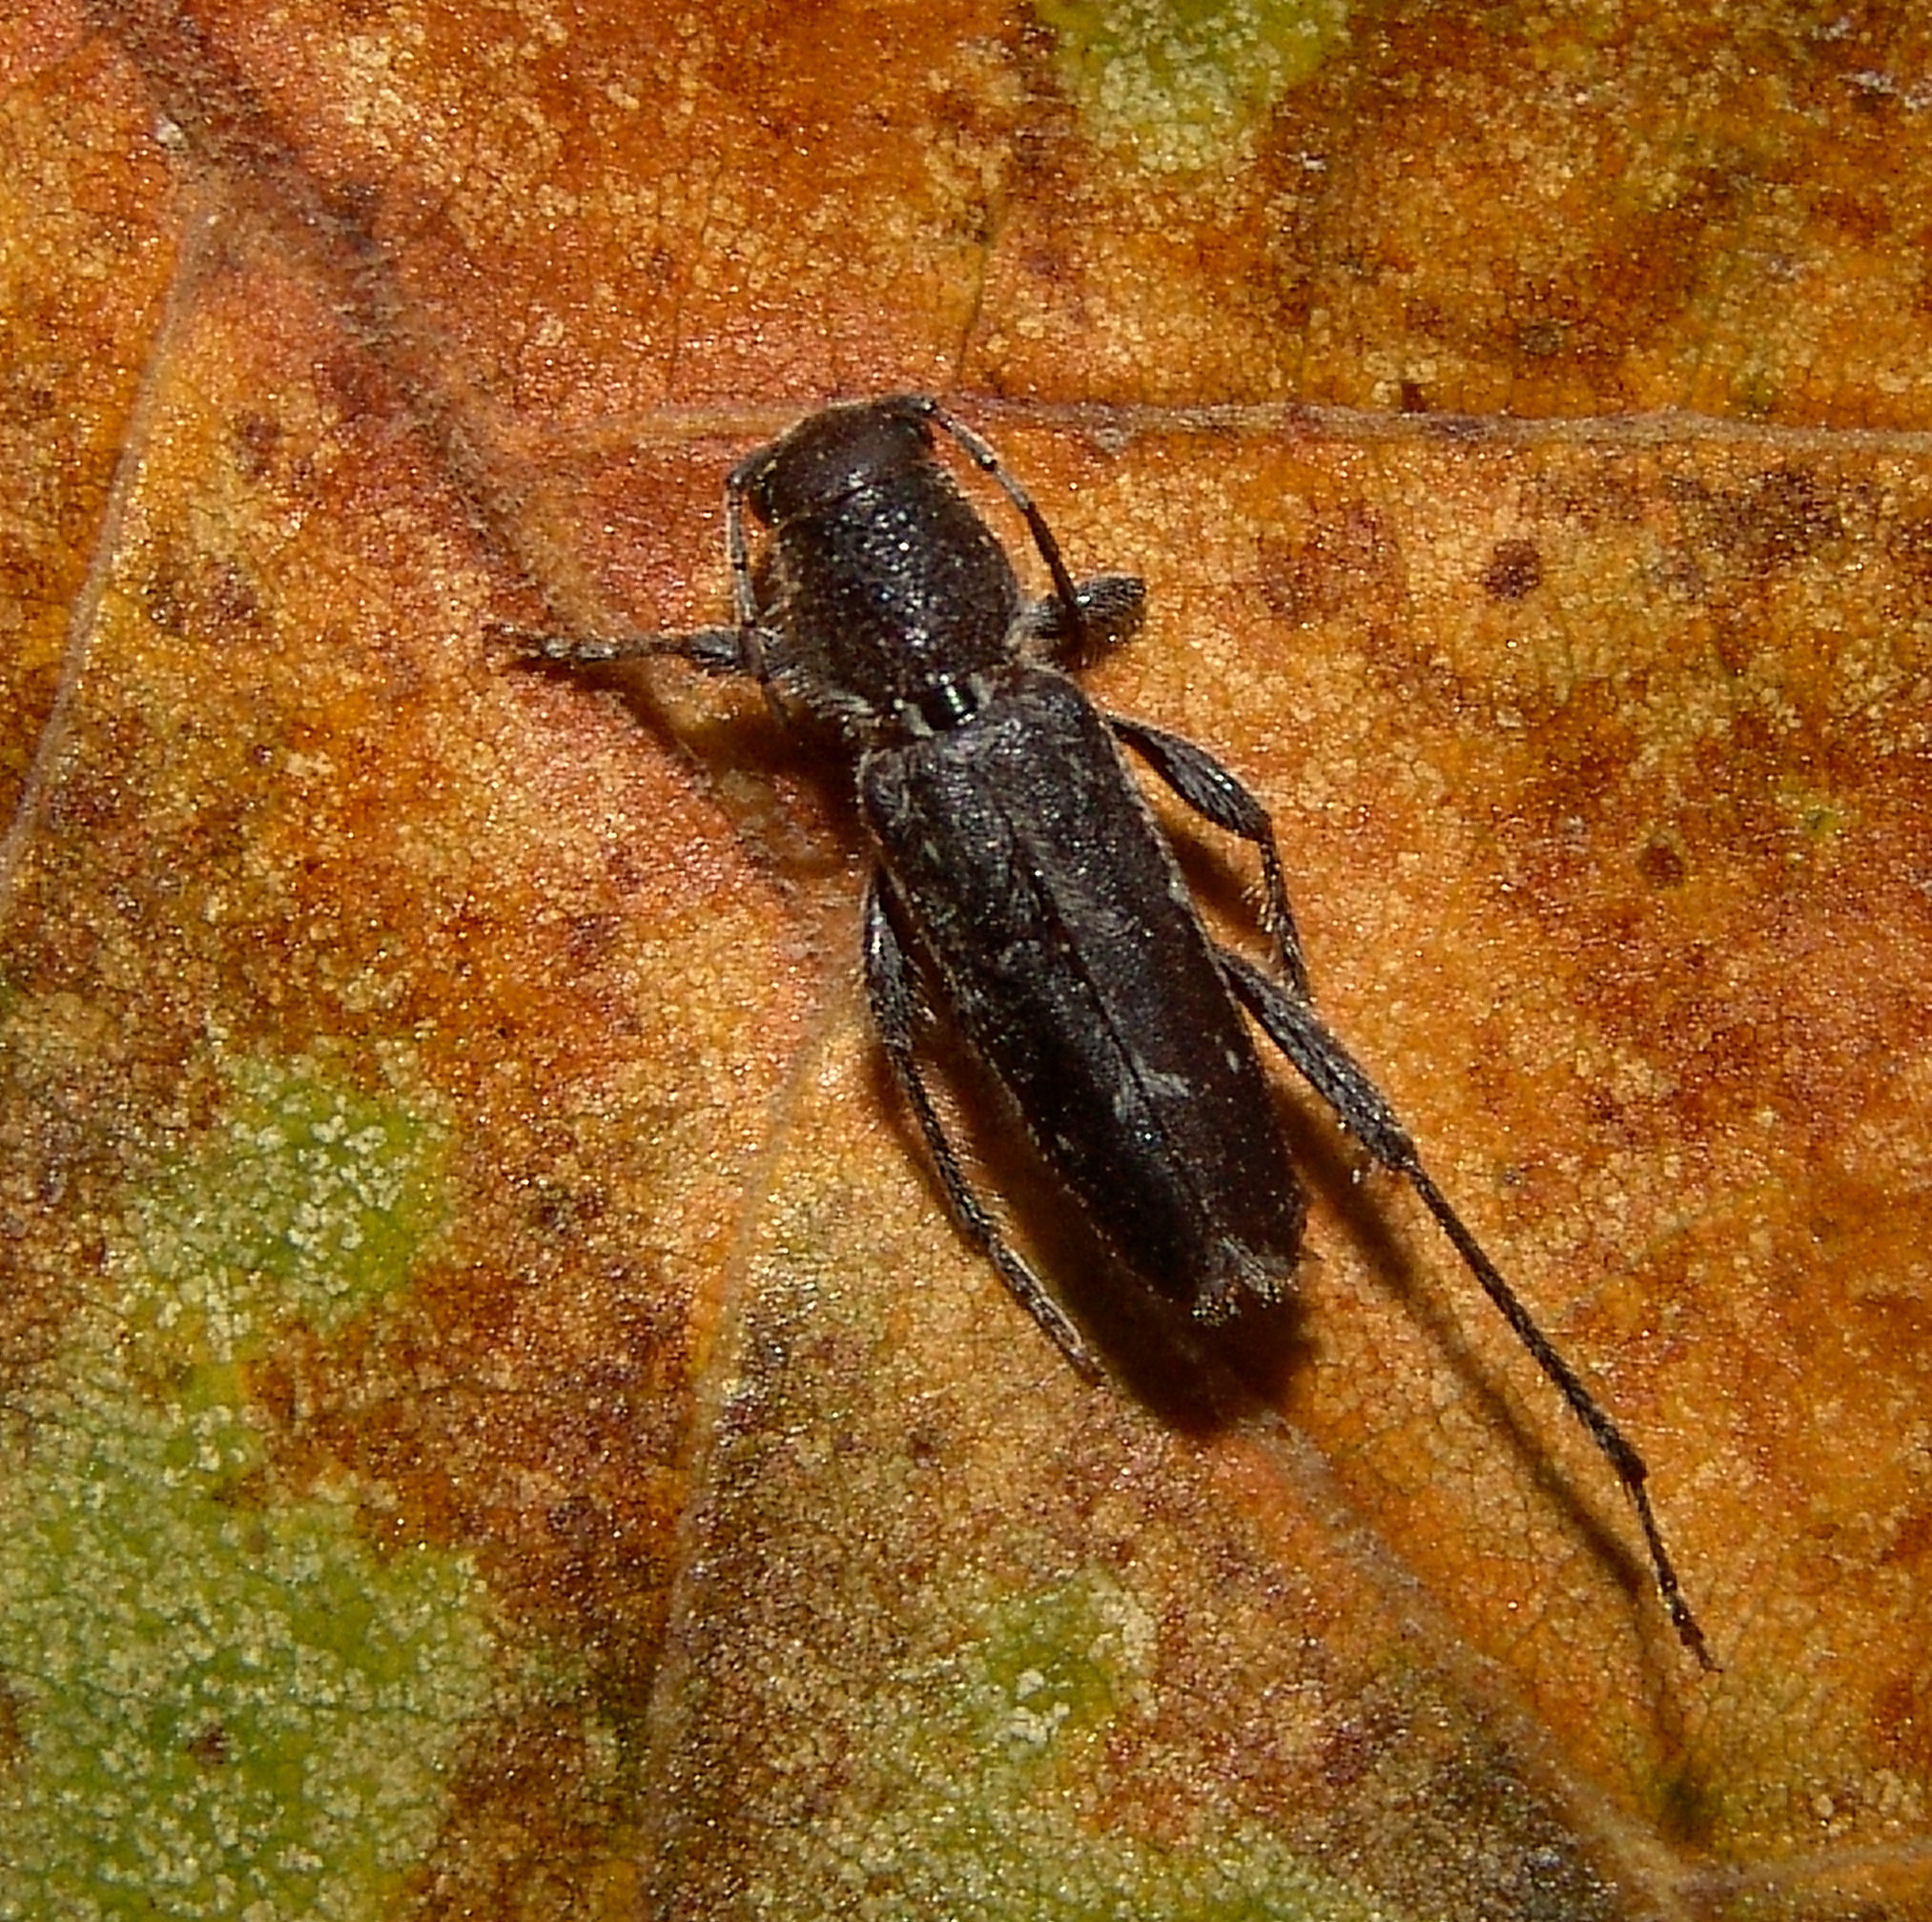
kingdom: Animalia
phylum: Arthropoda
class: Insecta
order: Coleoptera
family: Cerambycidae
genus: Xylotrechus
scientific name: Xylotrechus sagittatus
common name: Arrowhead borer
